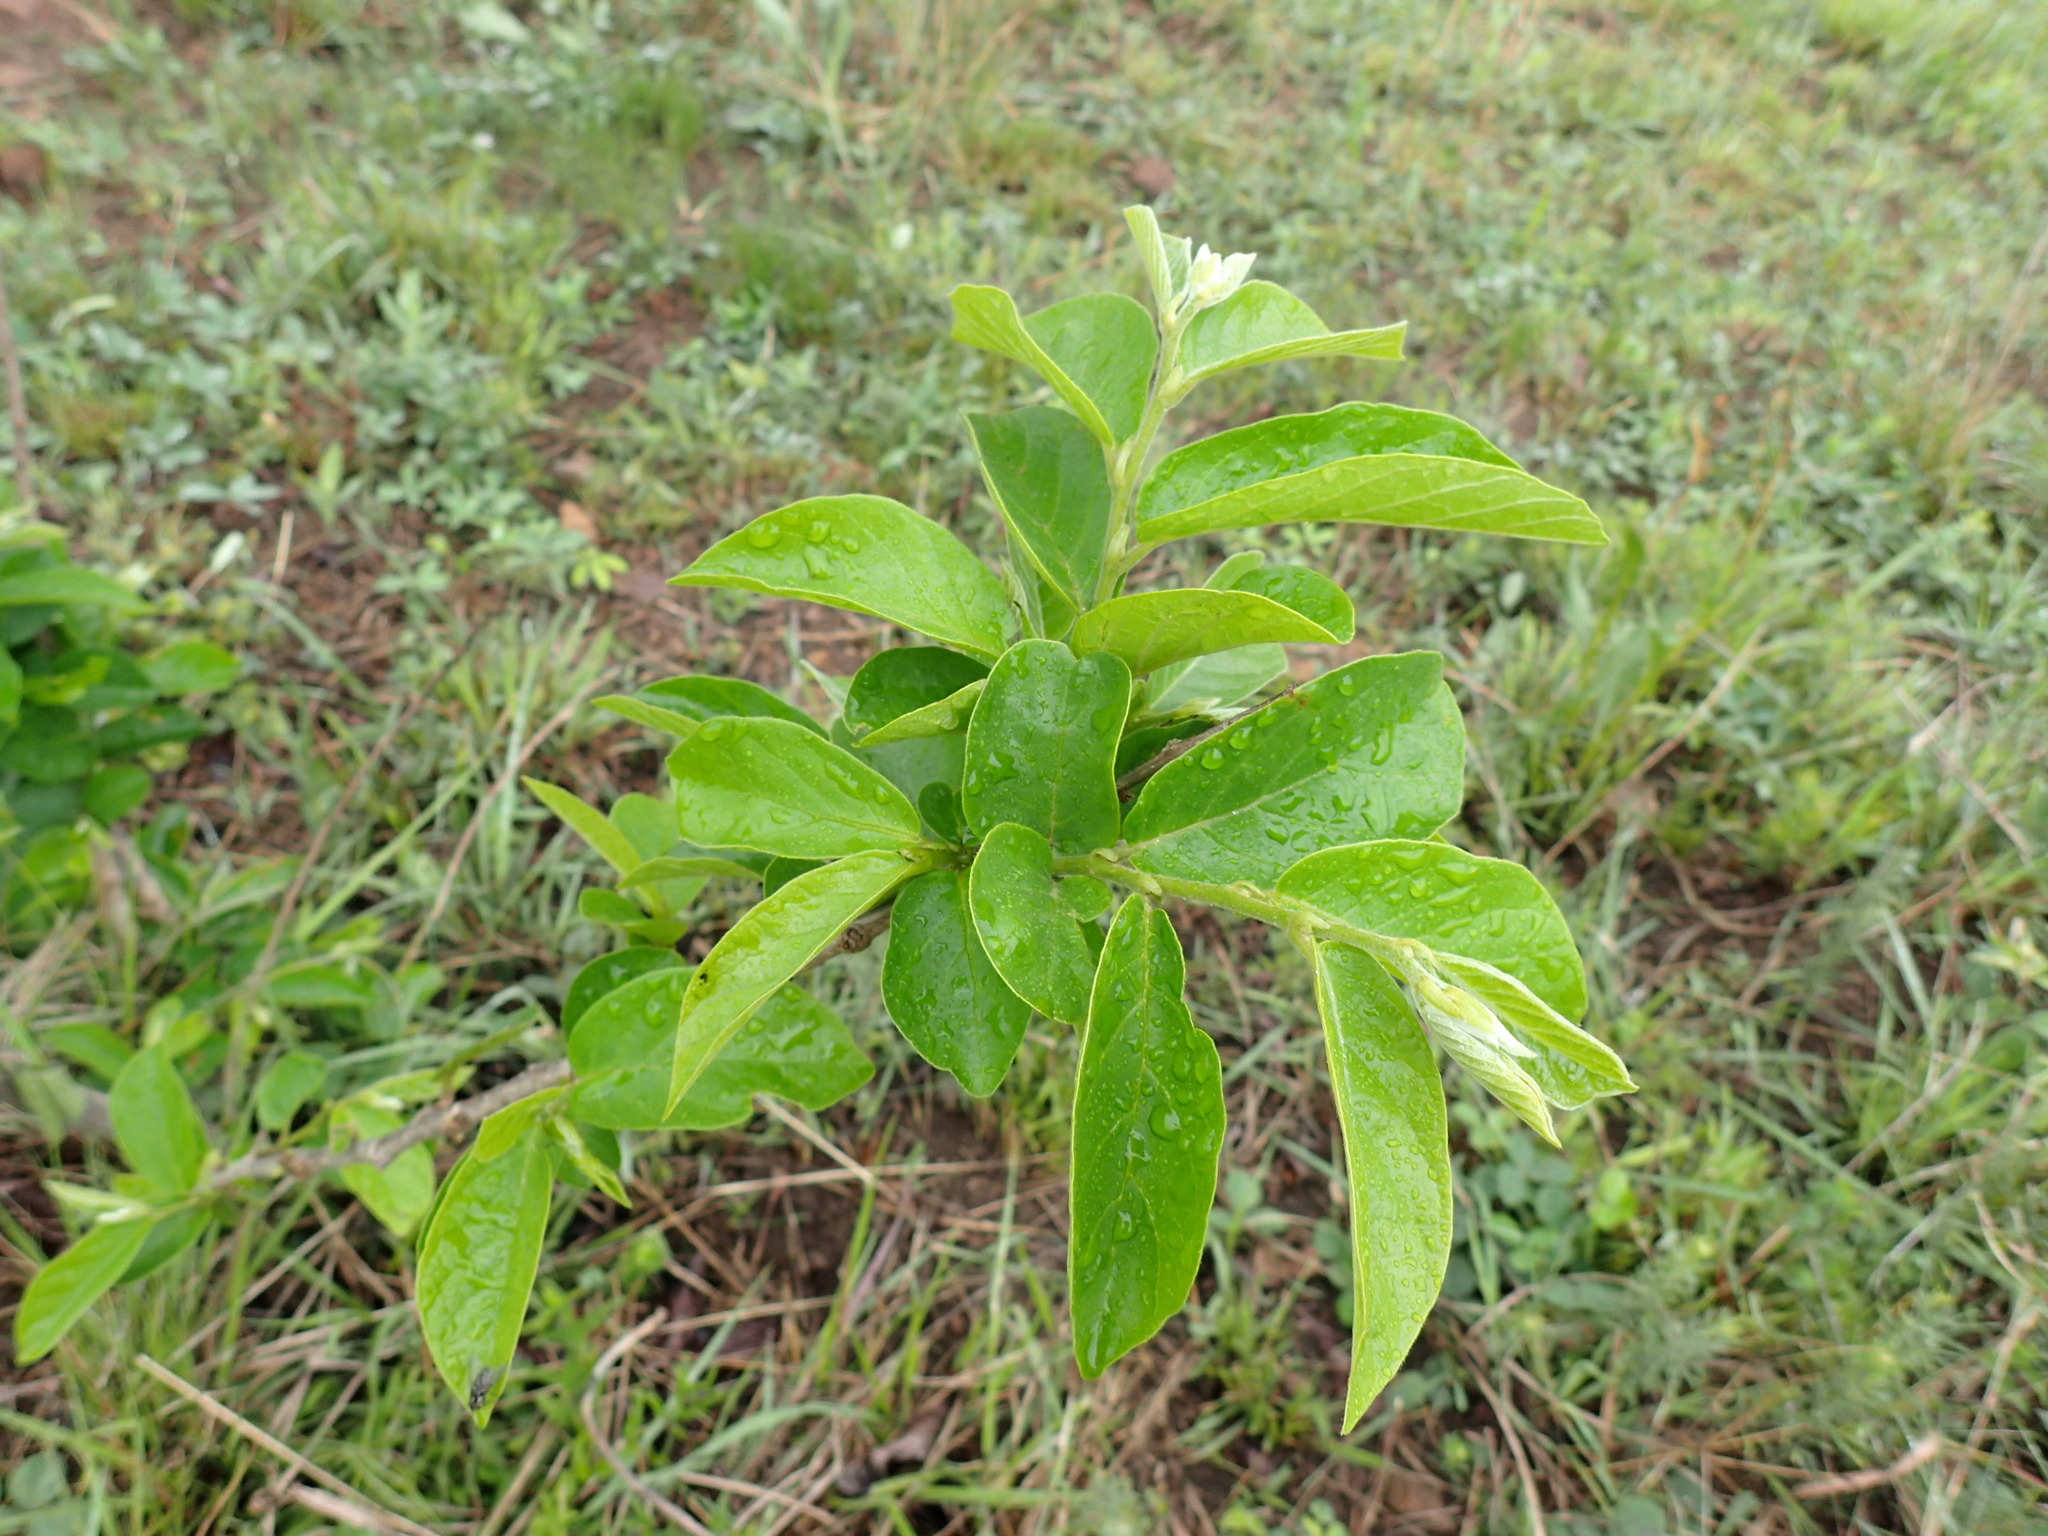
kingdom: Plantae
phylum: Tracheophyta
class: Magnoliopsida
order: Malpighiales
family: Phyllanthaceae
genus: Antidesma
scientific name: Antidesma venosum
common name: Tassel-berry
